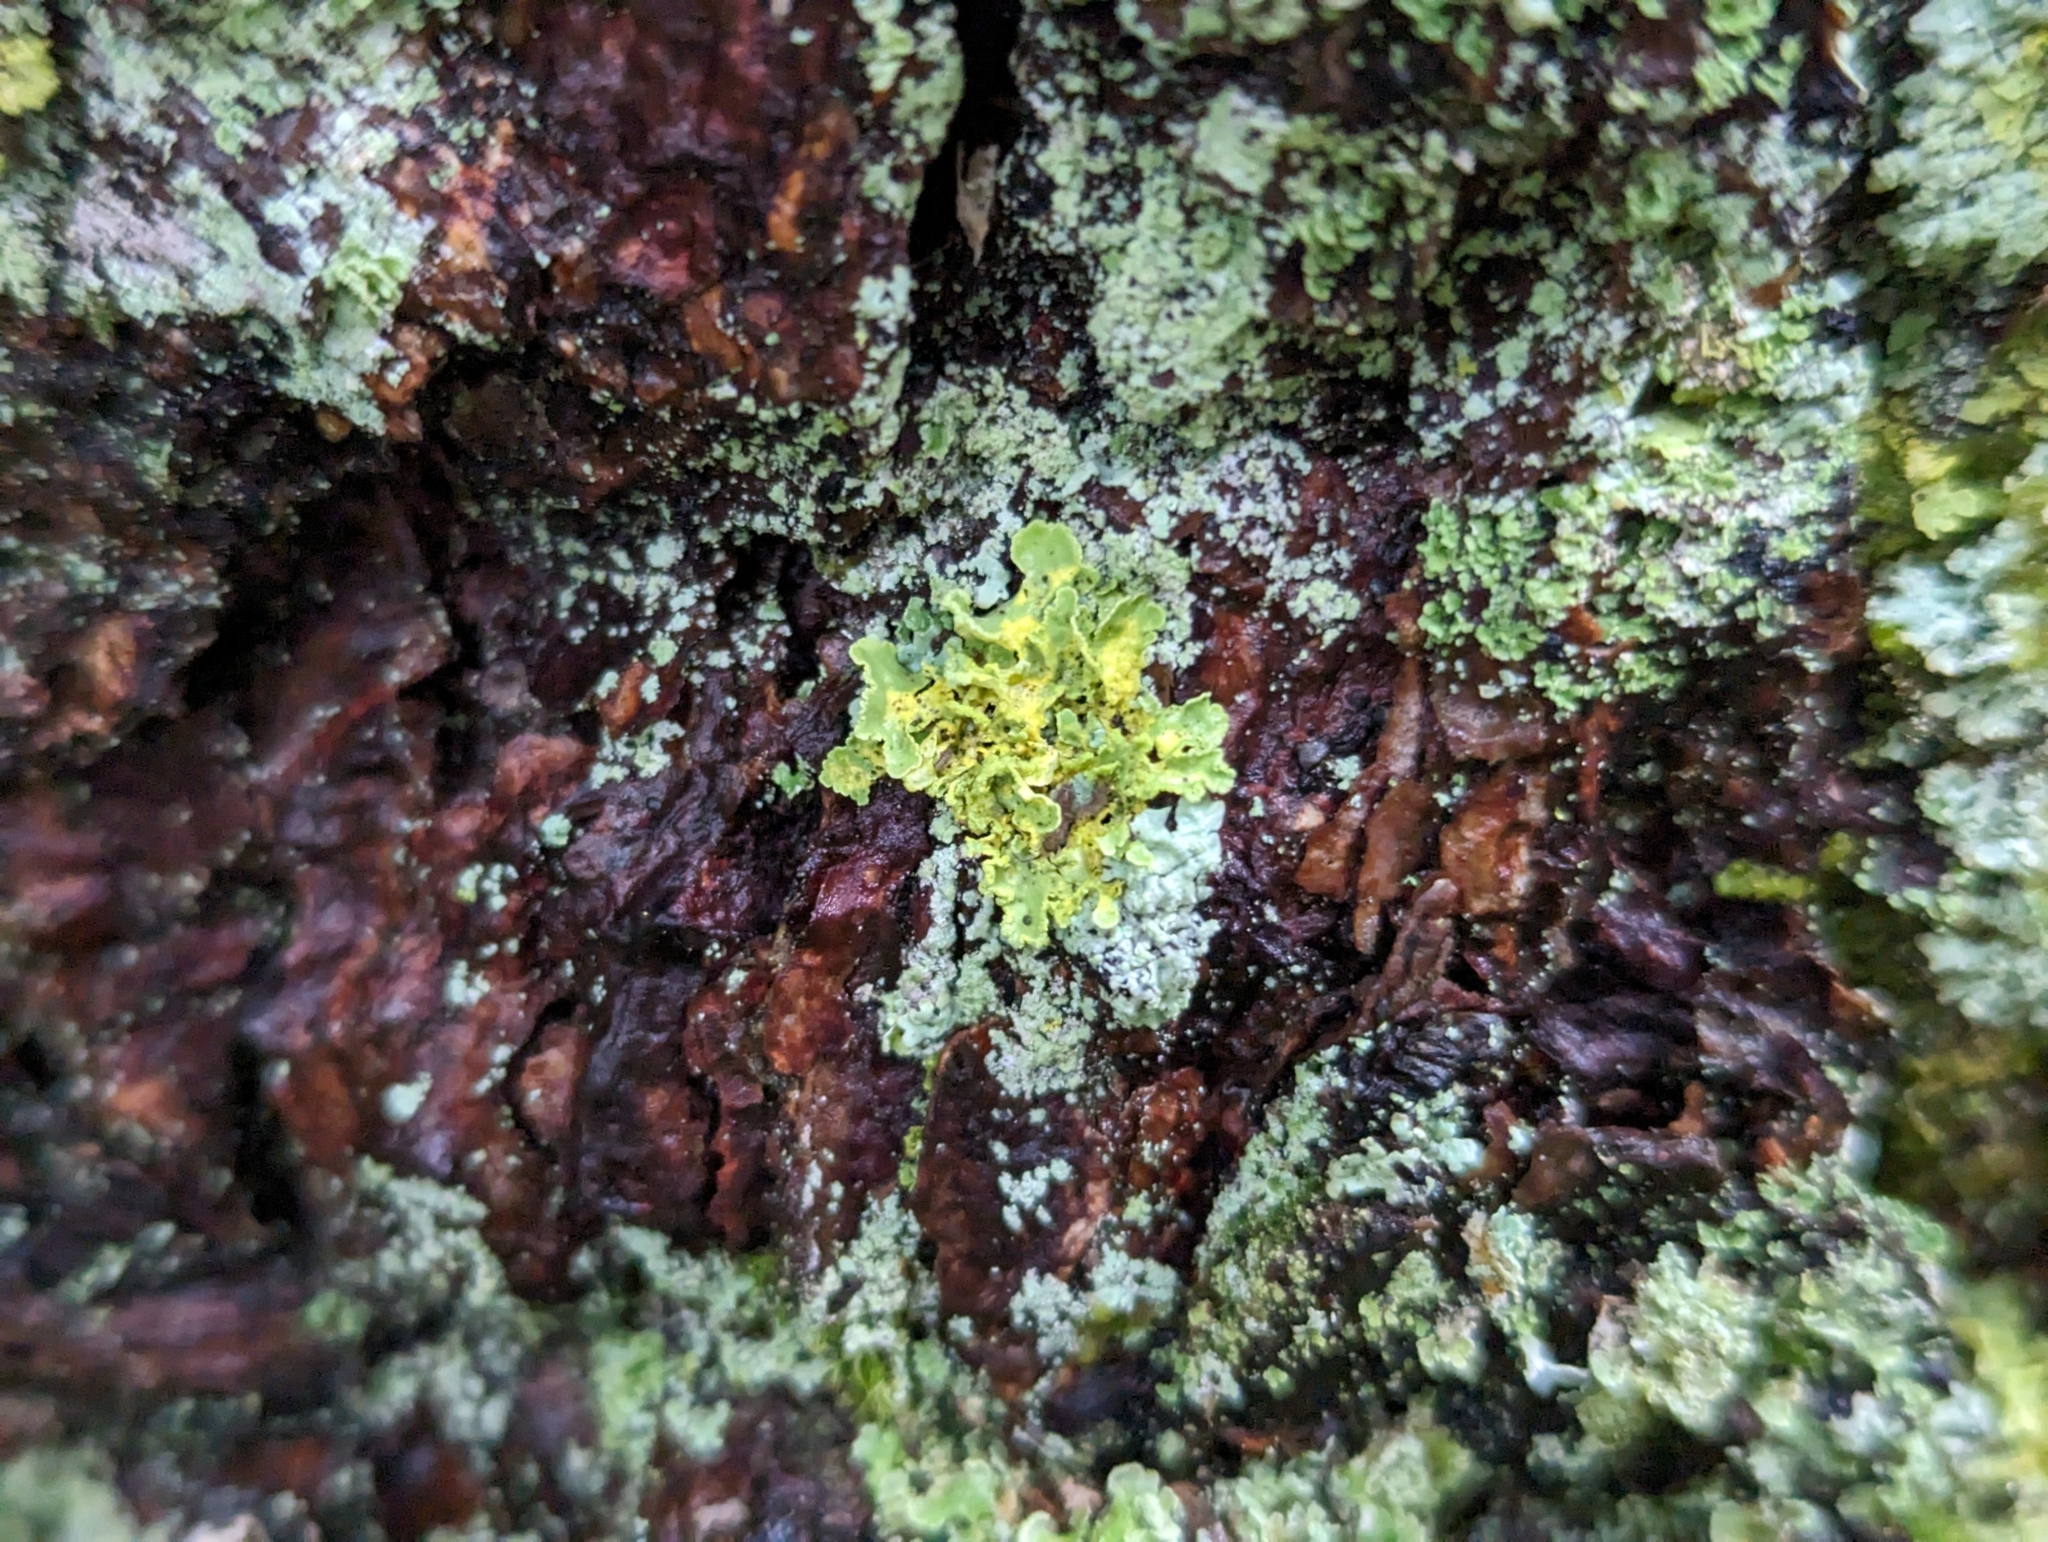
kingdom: Fungi
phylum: Ascomycota
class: Lecanoromycetes
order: Lecanorales
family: Parmeliaceae
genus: Vulpicida
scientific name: Vulpicida pinastri
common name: Powdered sunshine lichen
